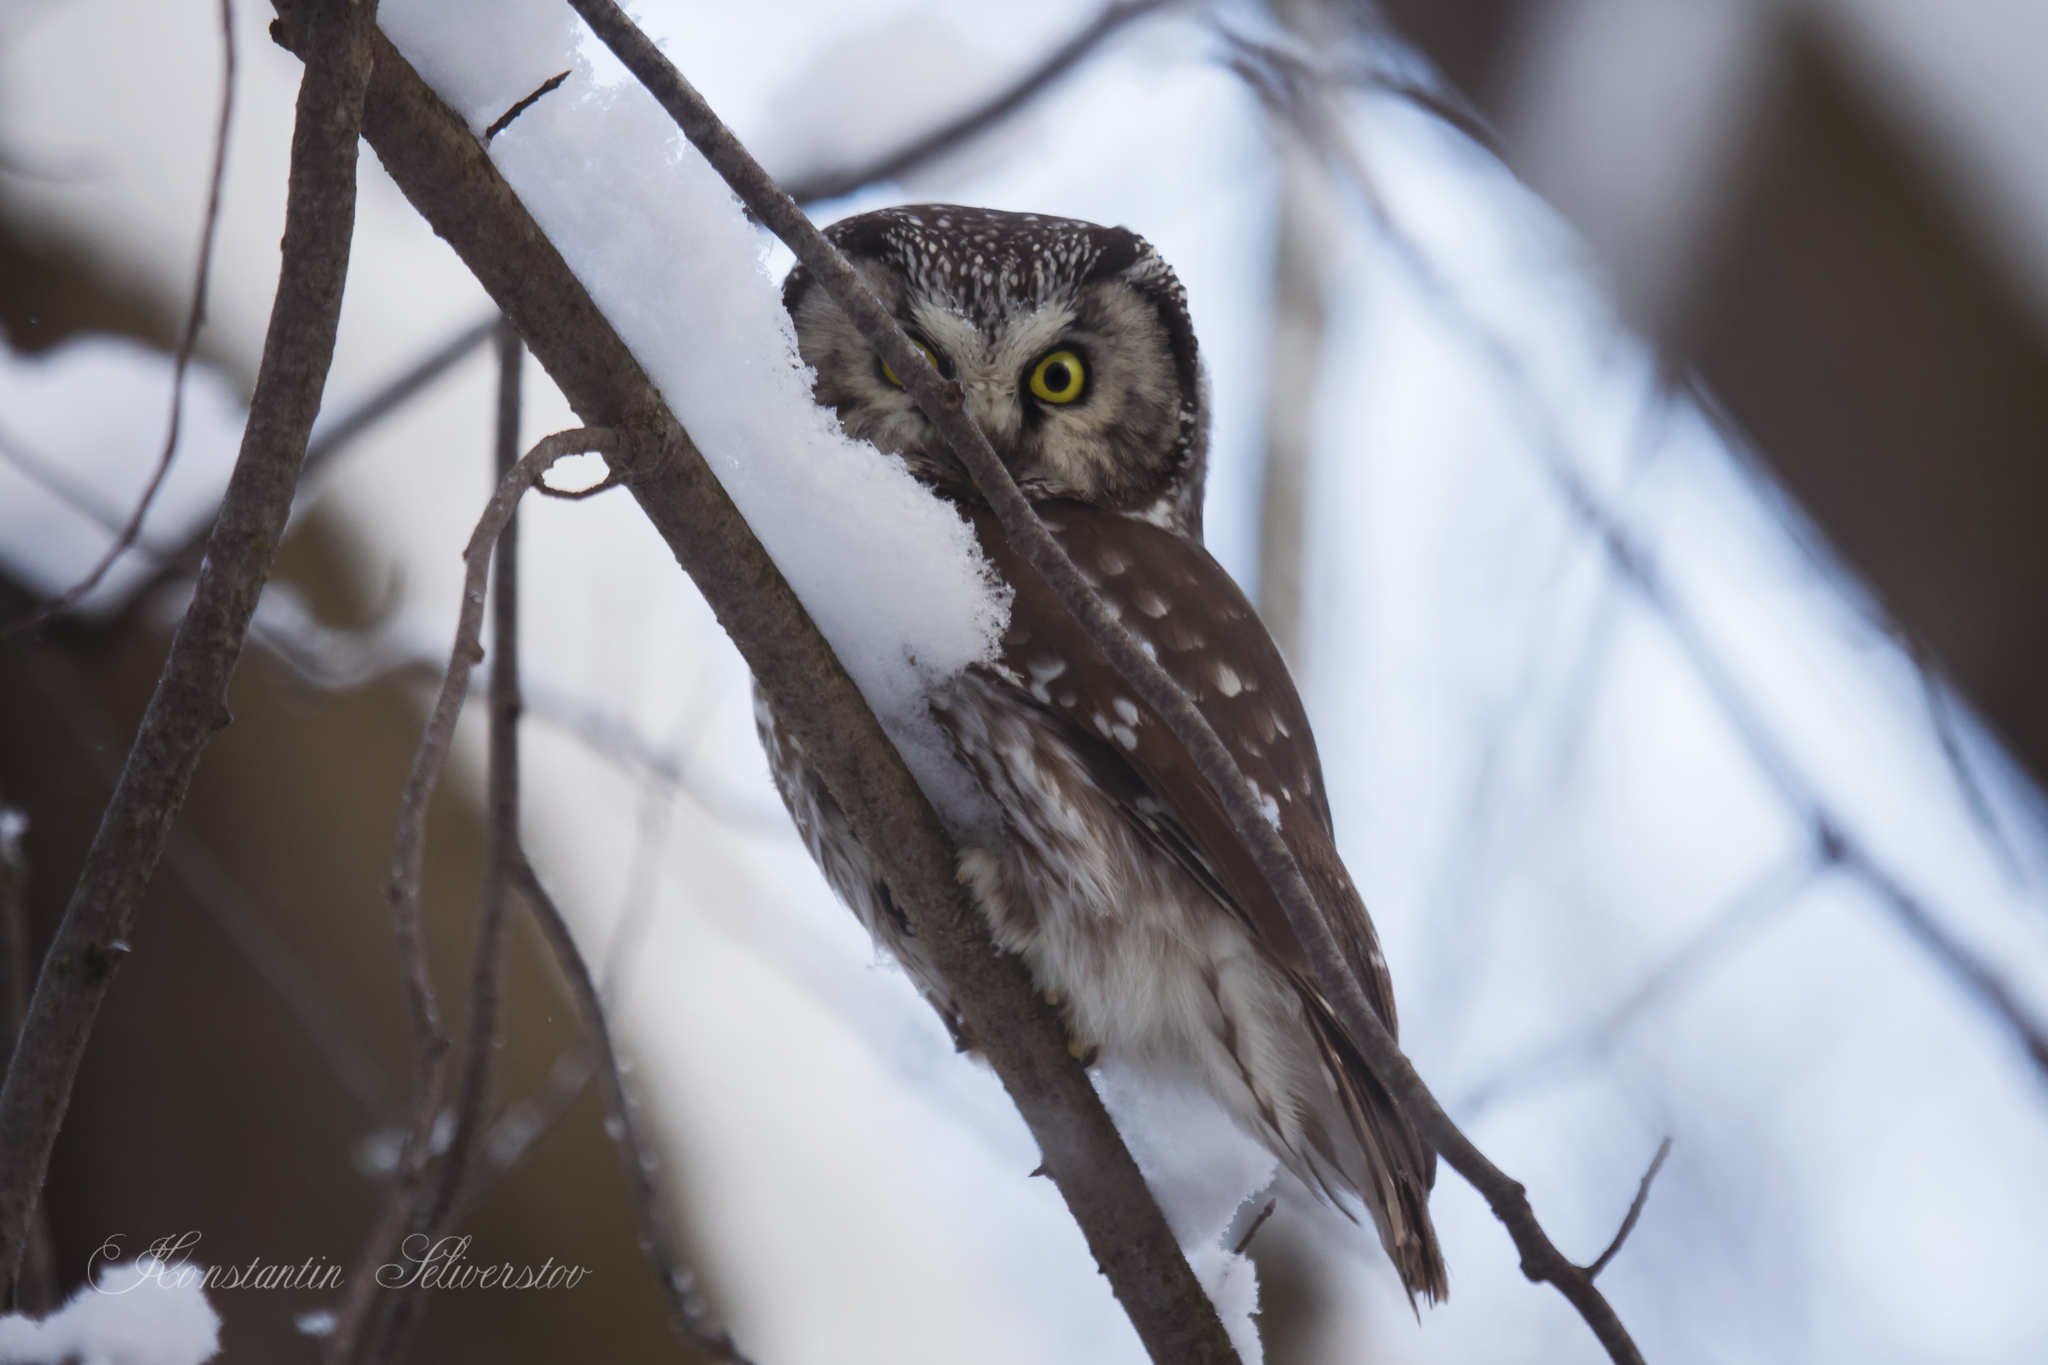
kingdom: Animalia
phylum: Chordata
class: Aves
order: Strigiformes
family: Strigidae
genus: Aegolius
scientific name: Aegolius funereus
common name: Boreal owl
